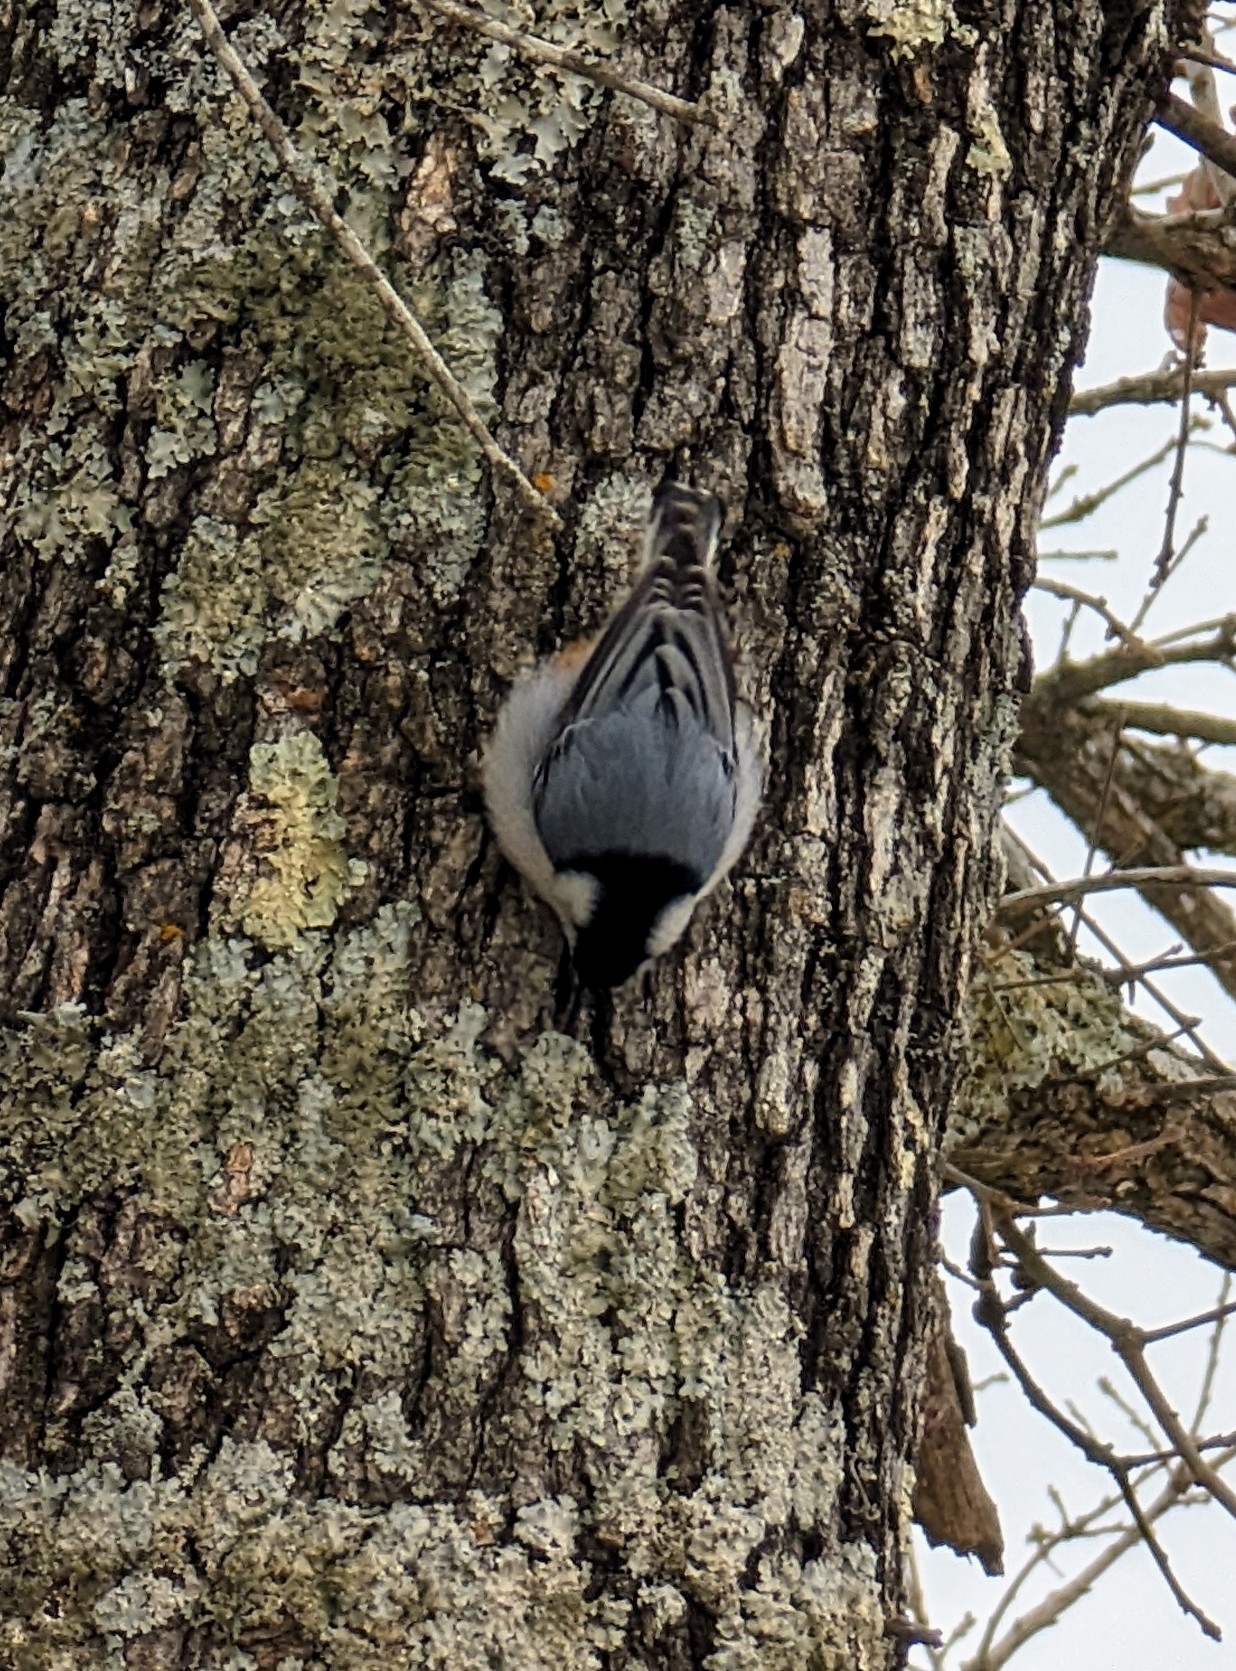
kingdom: Animalia
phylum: Chordata
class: Aves
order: Passeriformes
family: Sittidae
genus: Sitta
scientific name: Sitta carolinensis
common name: White-breasted nuthatch
